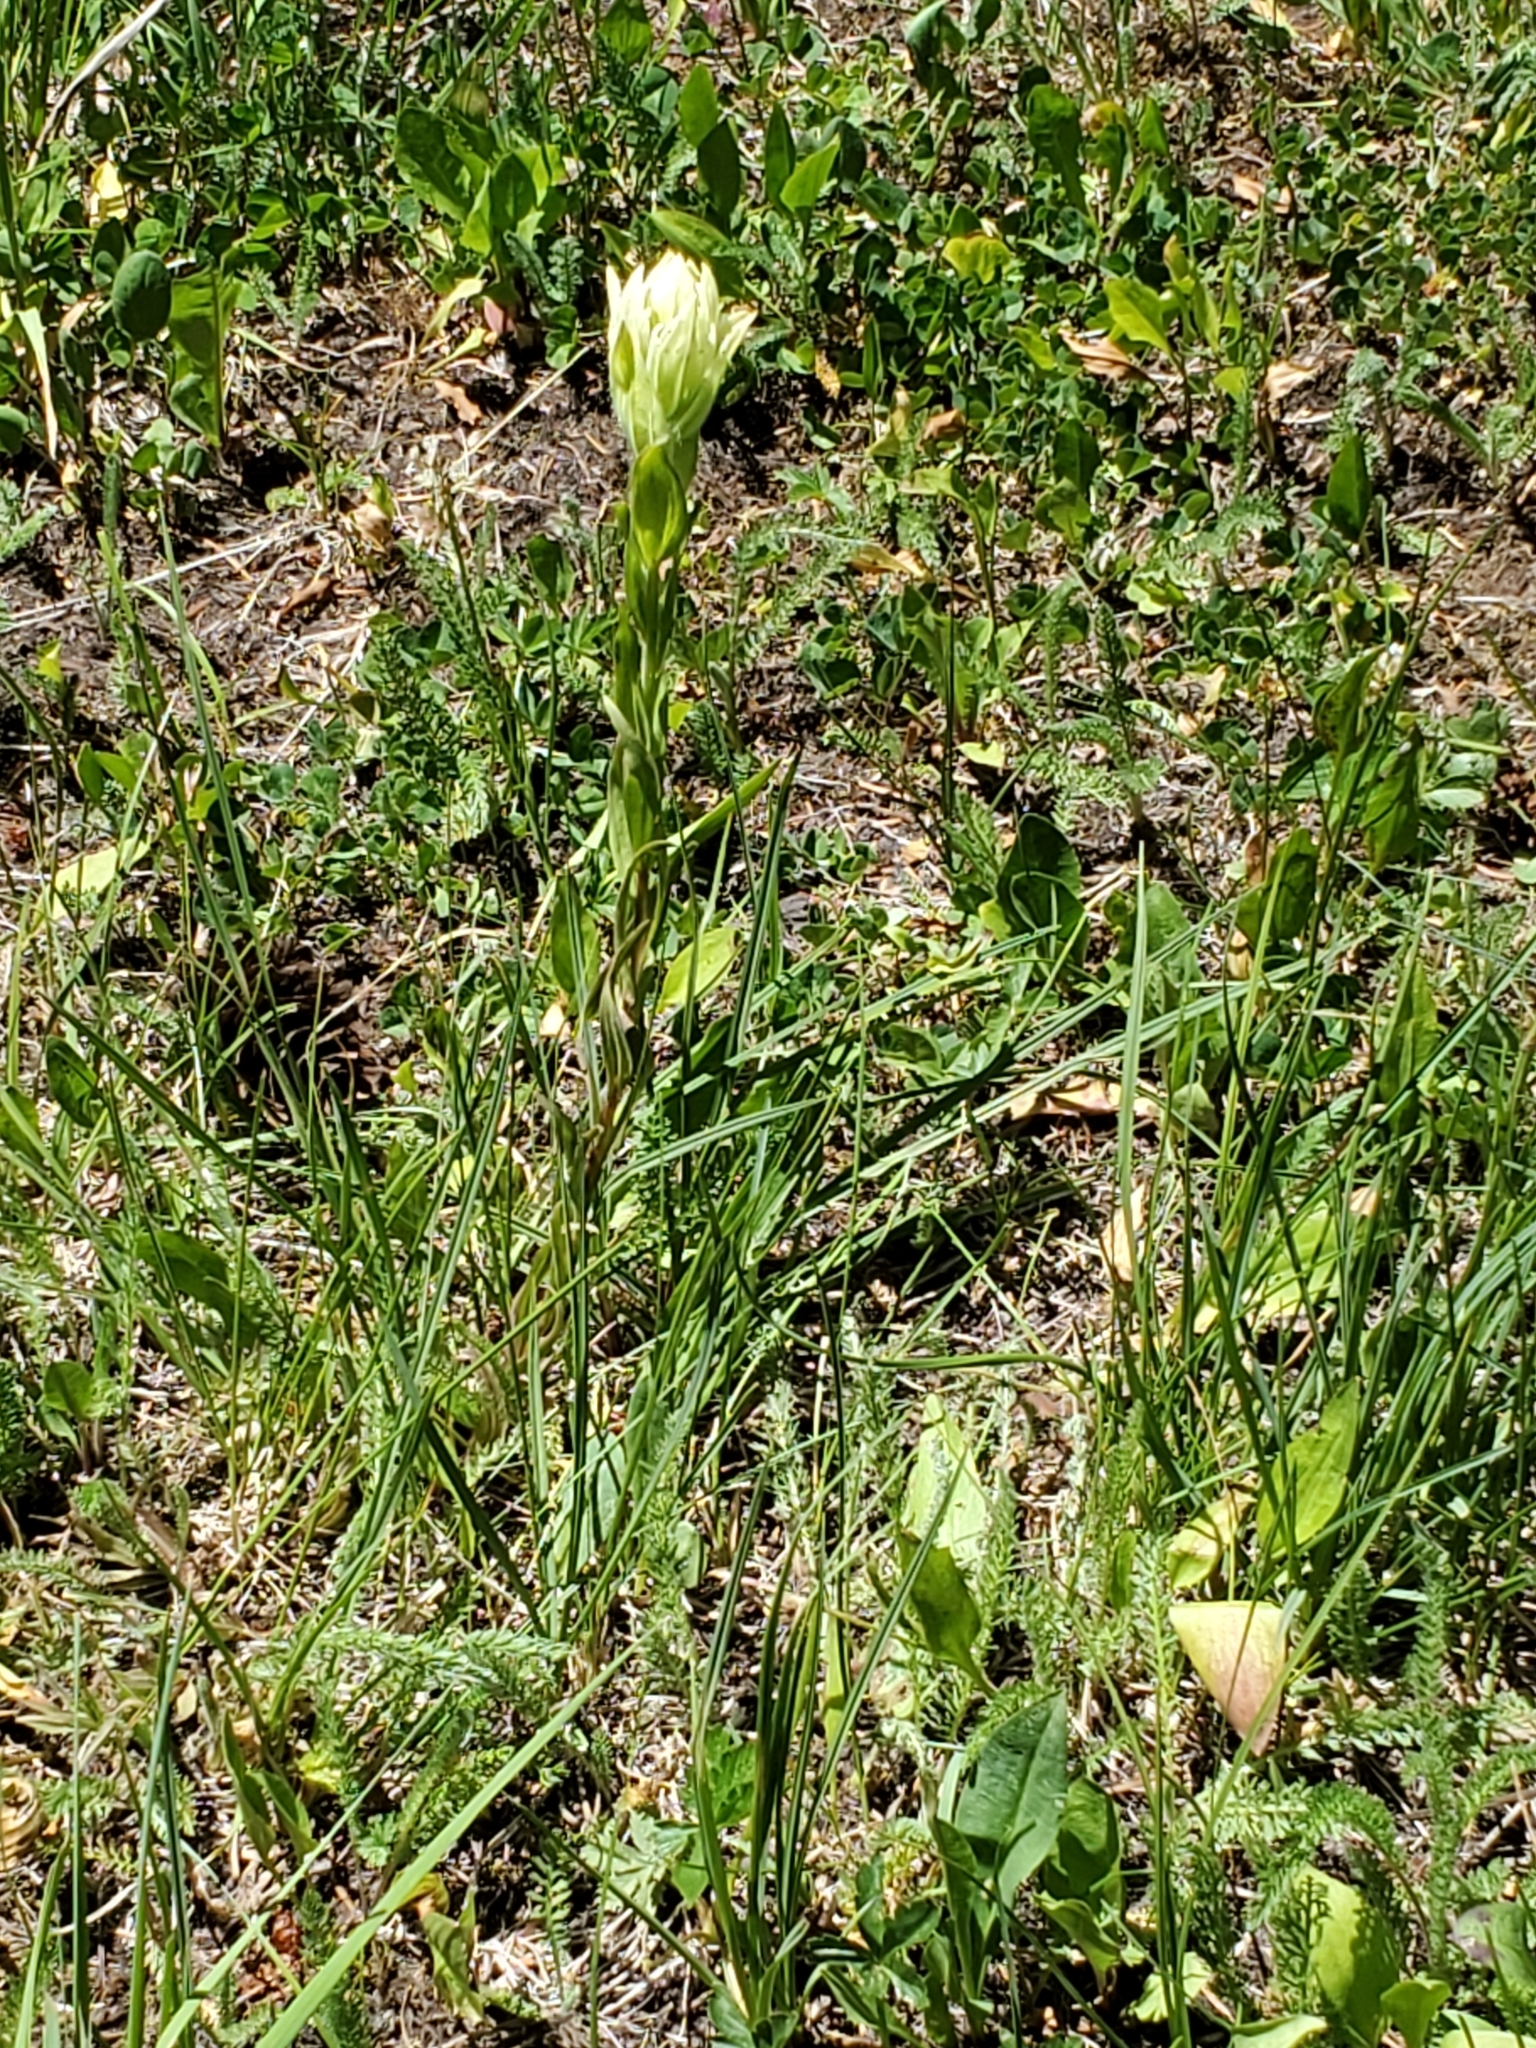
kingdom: Plantae
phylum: Tracheophyta
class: Magnoliopsida
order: Lamiales
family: Orobanchaceae
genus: Castilleja
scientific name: Castilleja septentrionalis
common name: Northeastern paintbrush
